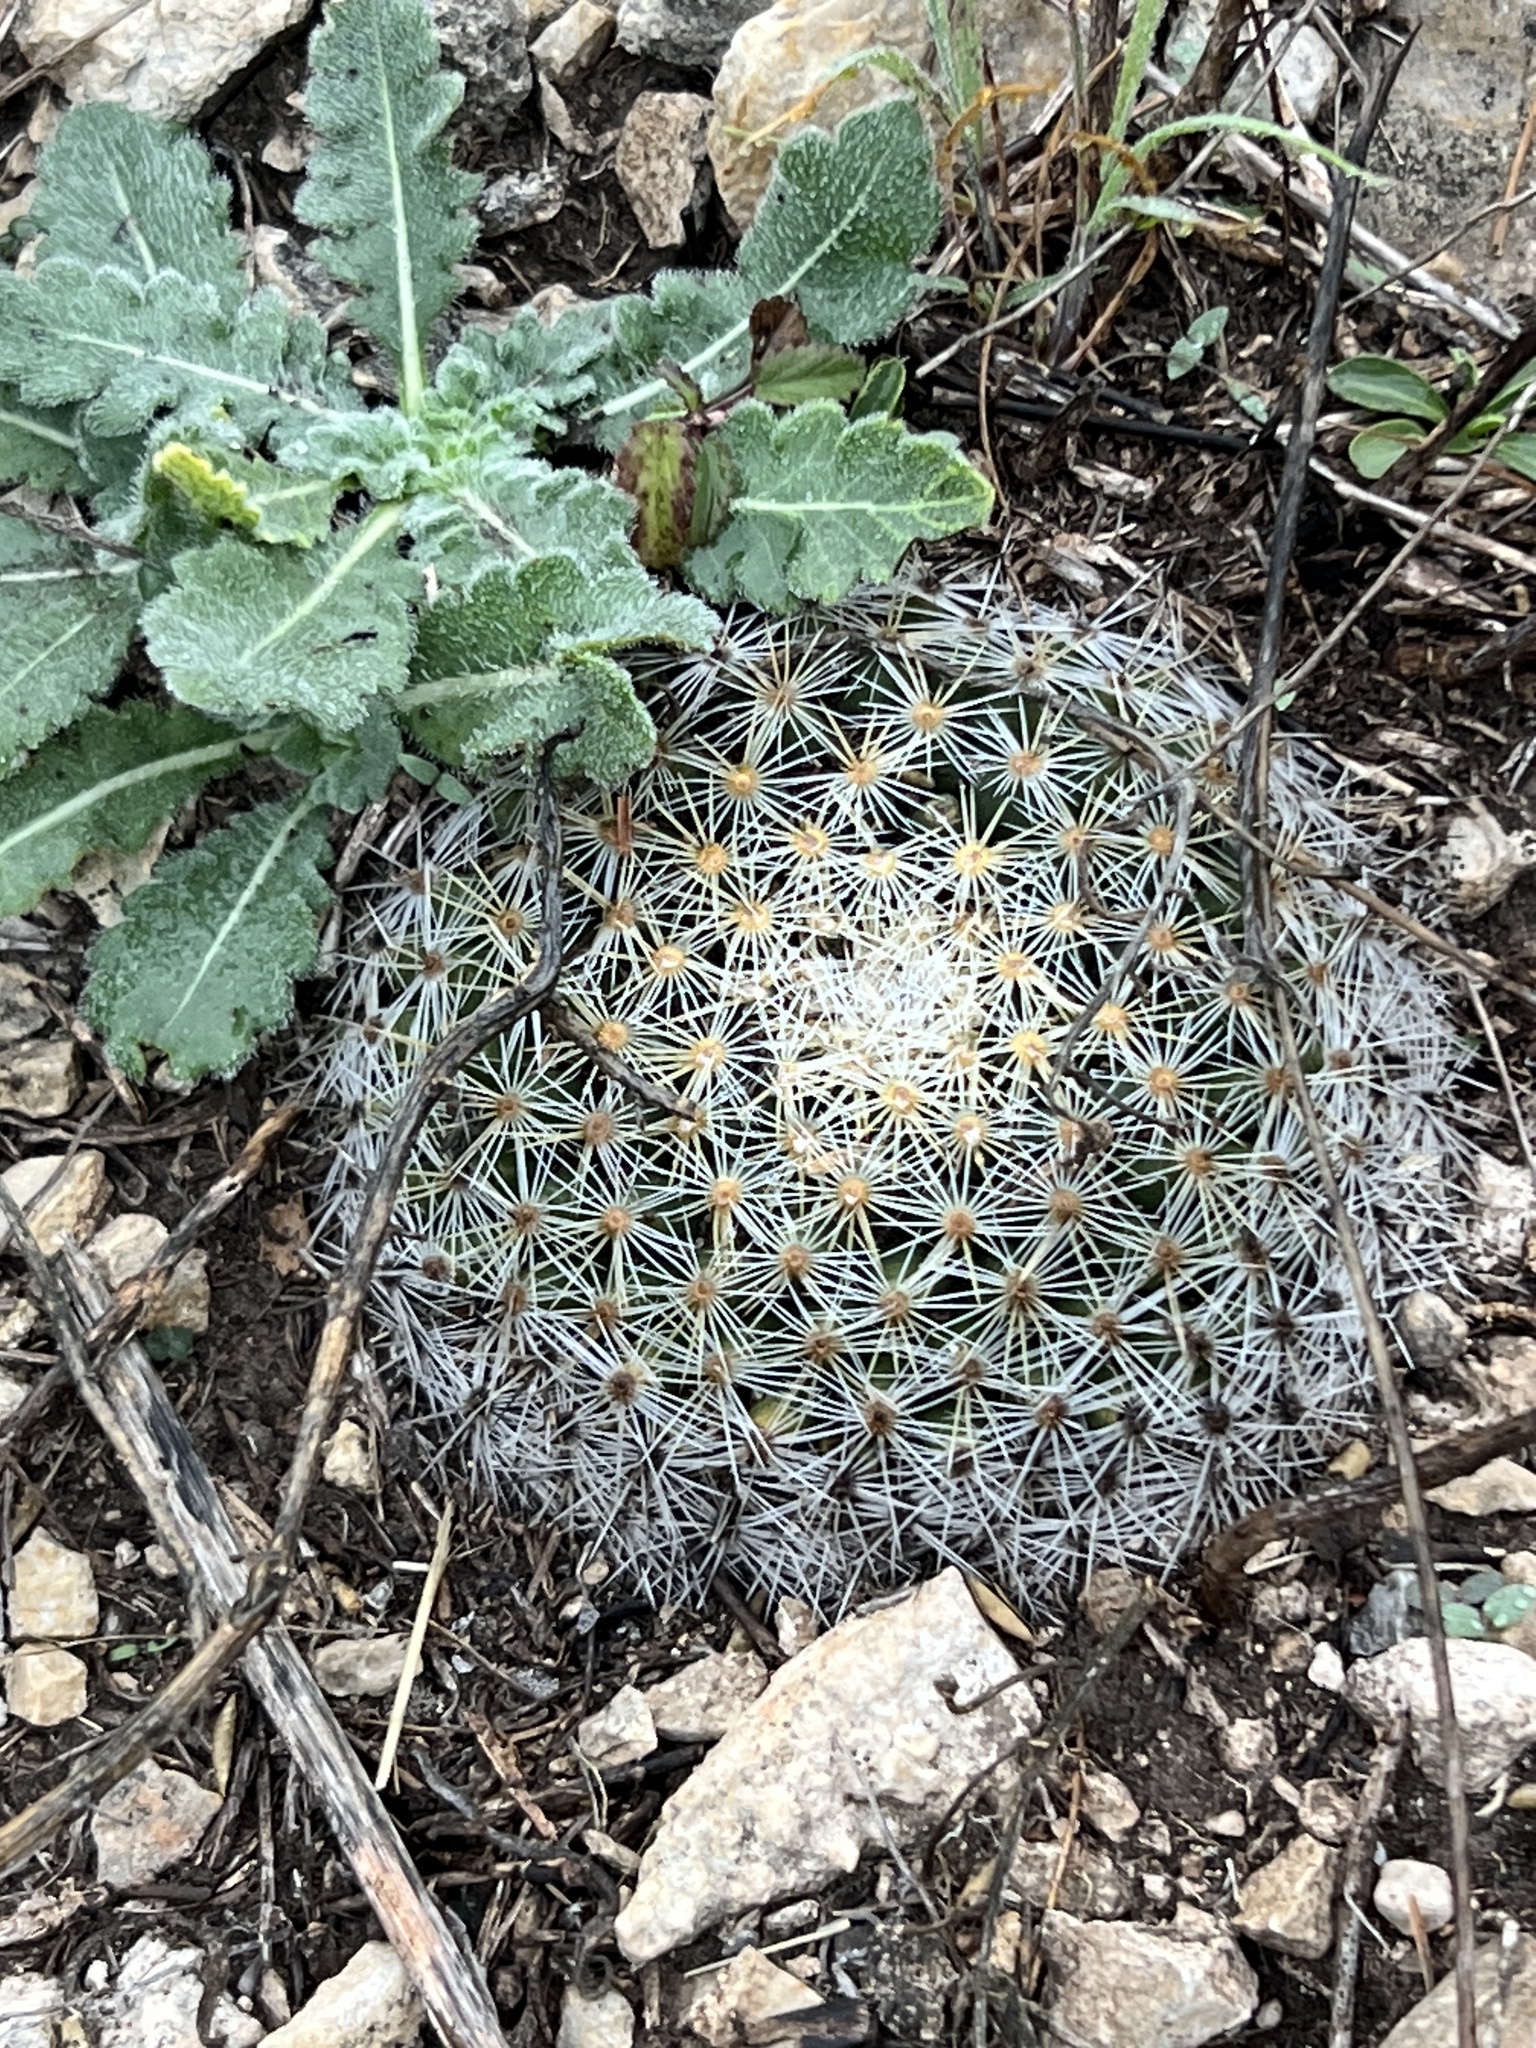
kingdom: Plantae
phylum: Tracheophyta
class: Magnoliopsida
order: Caryophyllales
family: Cactaceae
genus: Mammillaria
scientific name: Mammillaria heyderi
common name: Little nipple cactus
